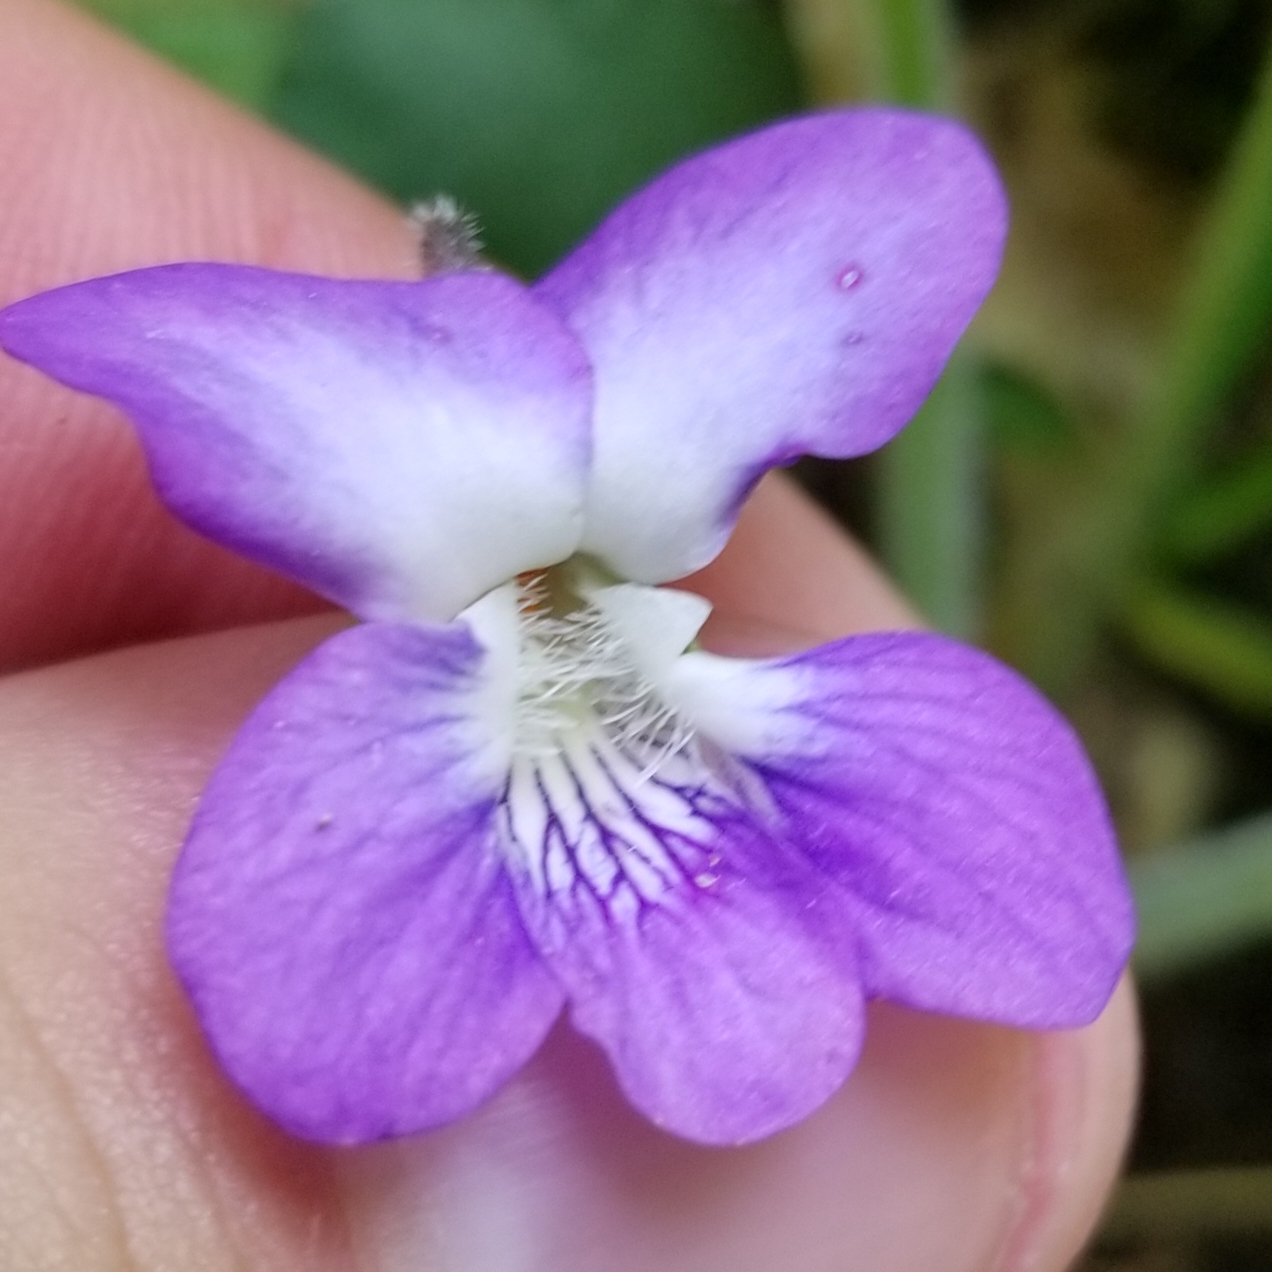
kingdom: Plantae
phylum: Tracheophyta
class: Magnoliopsida
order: Malpighiales
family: Violaceae
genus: Viola
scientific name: Viola sororia
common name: Dooryard violet
